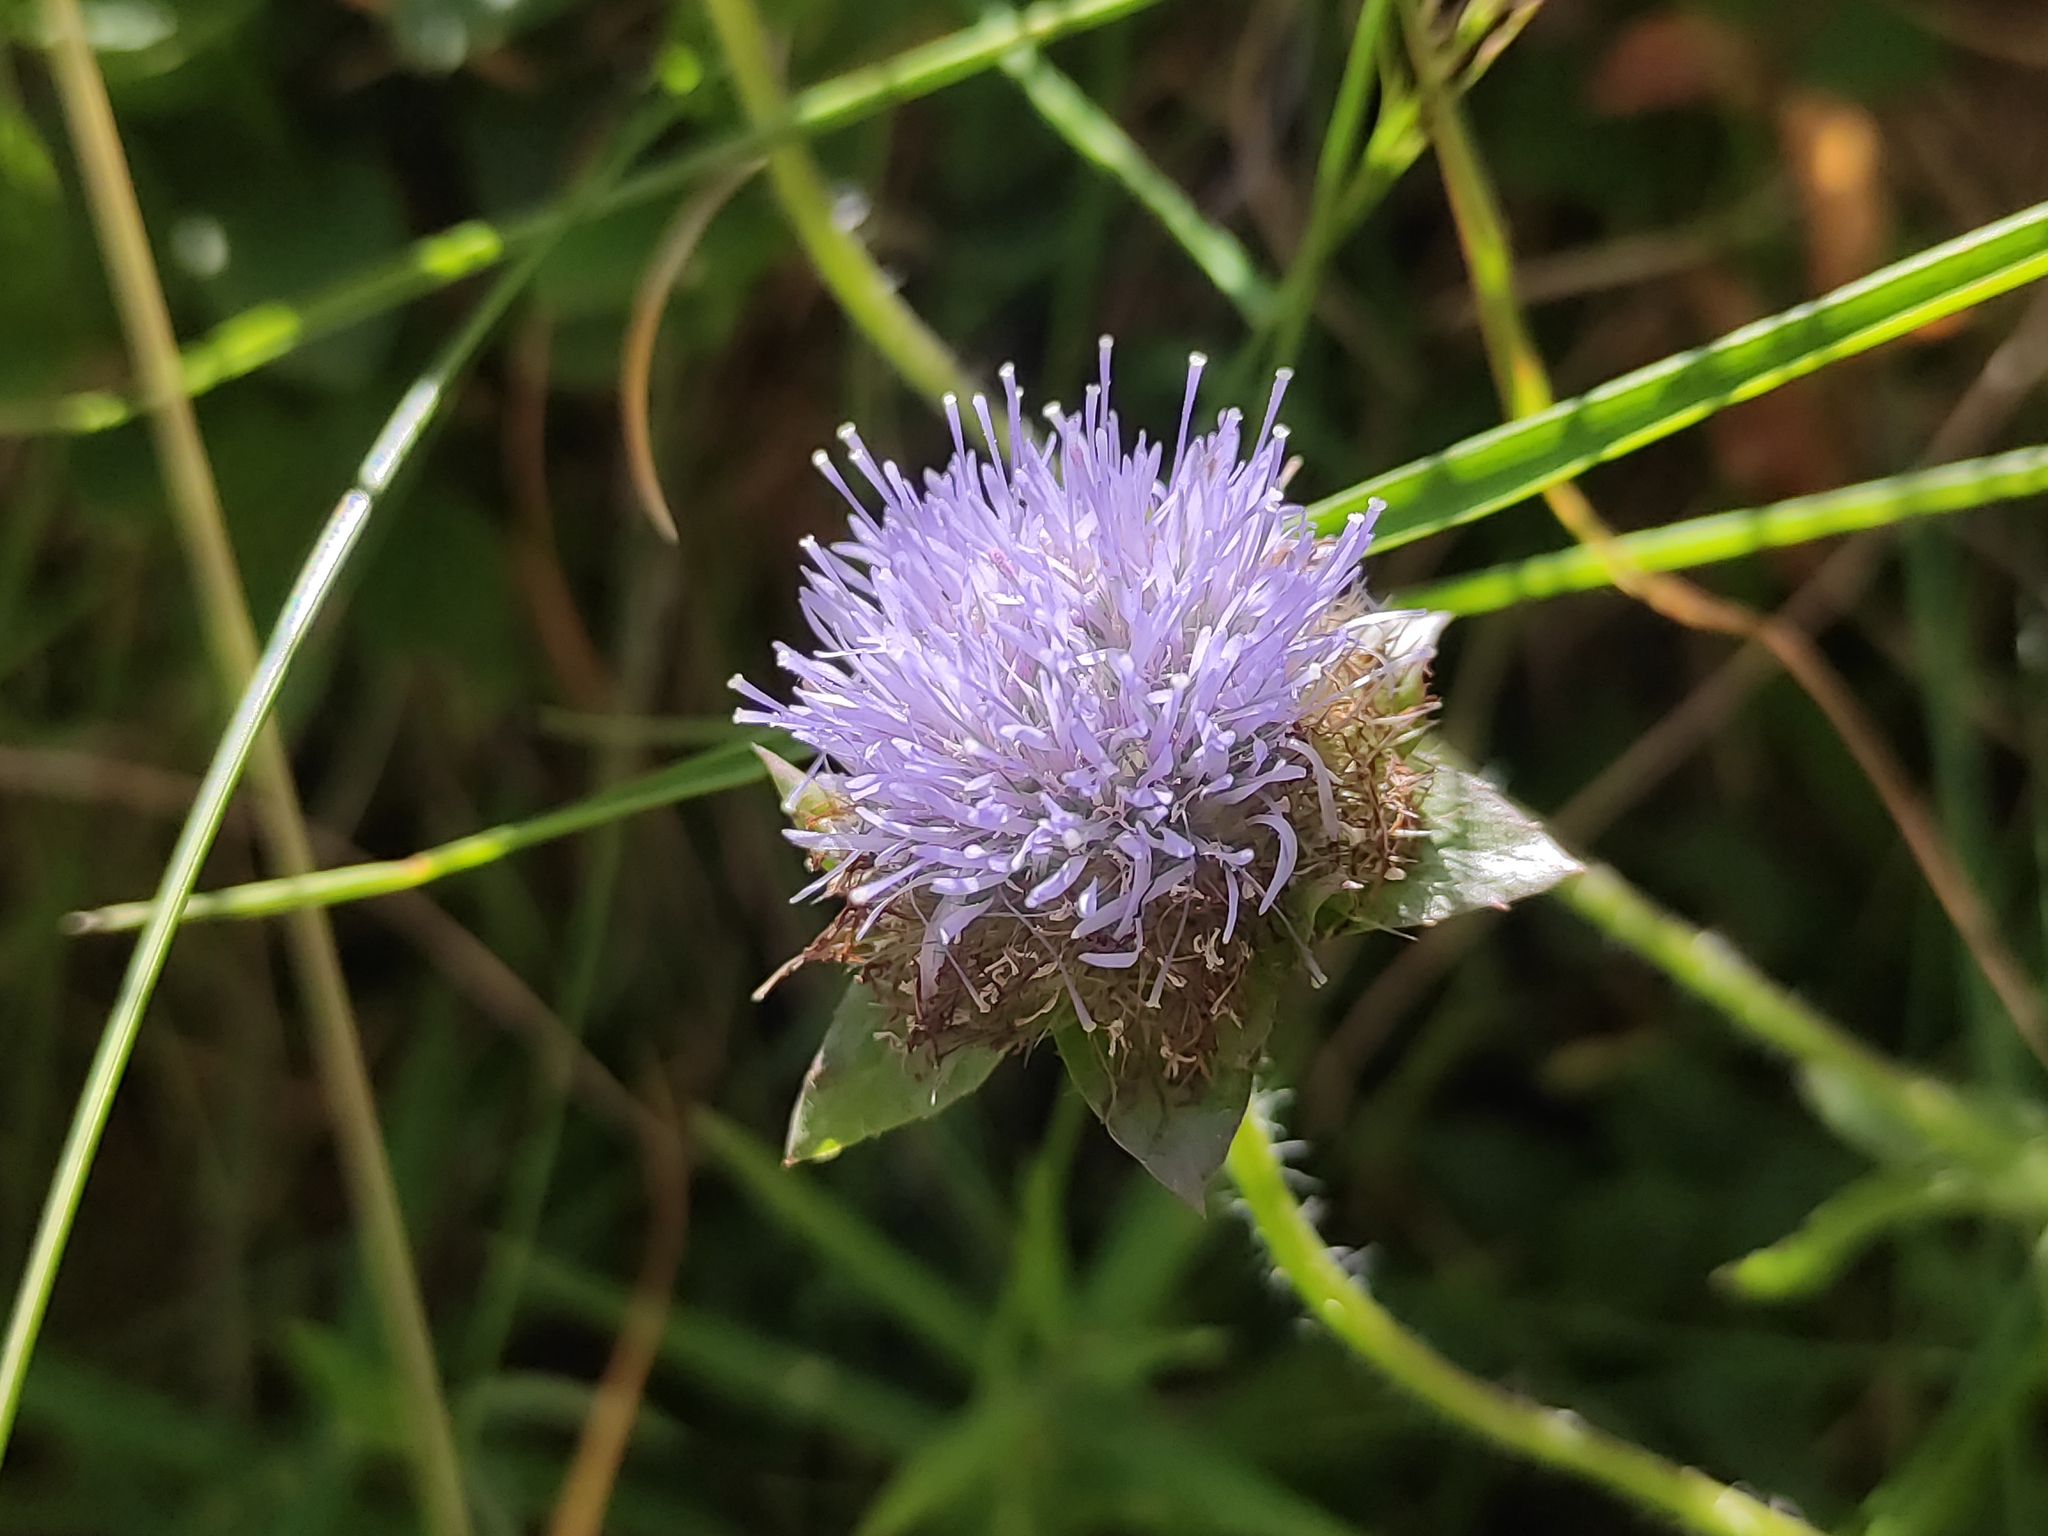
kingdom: Plantae
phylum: Tracheophyta
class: Magnoliopsida
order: Asterales
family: Campanulaceae
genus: Jasione
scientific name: Jasione laevis
